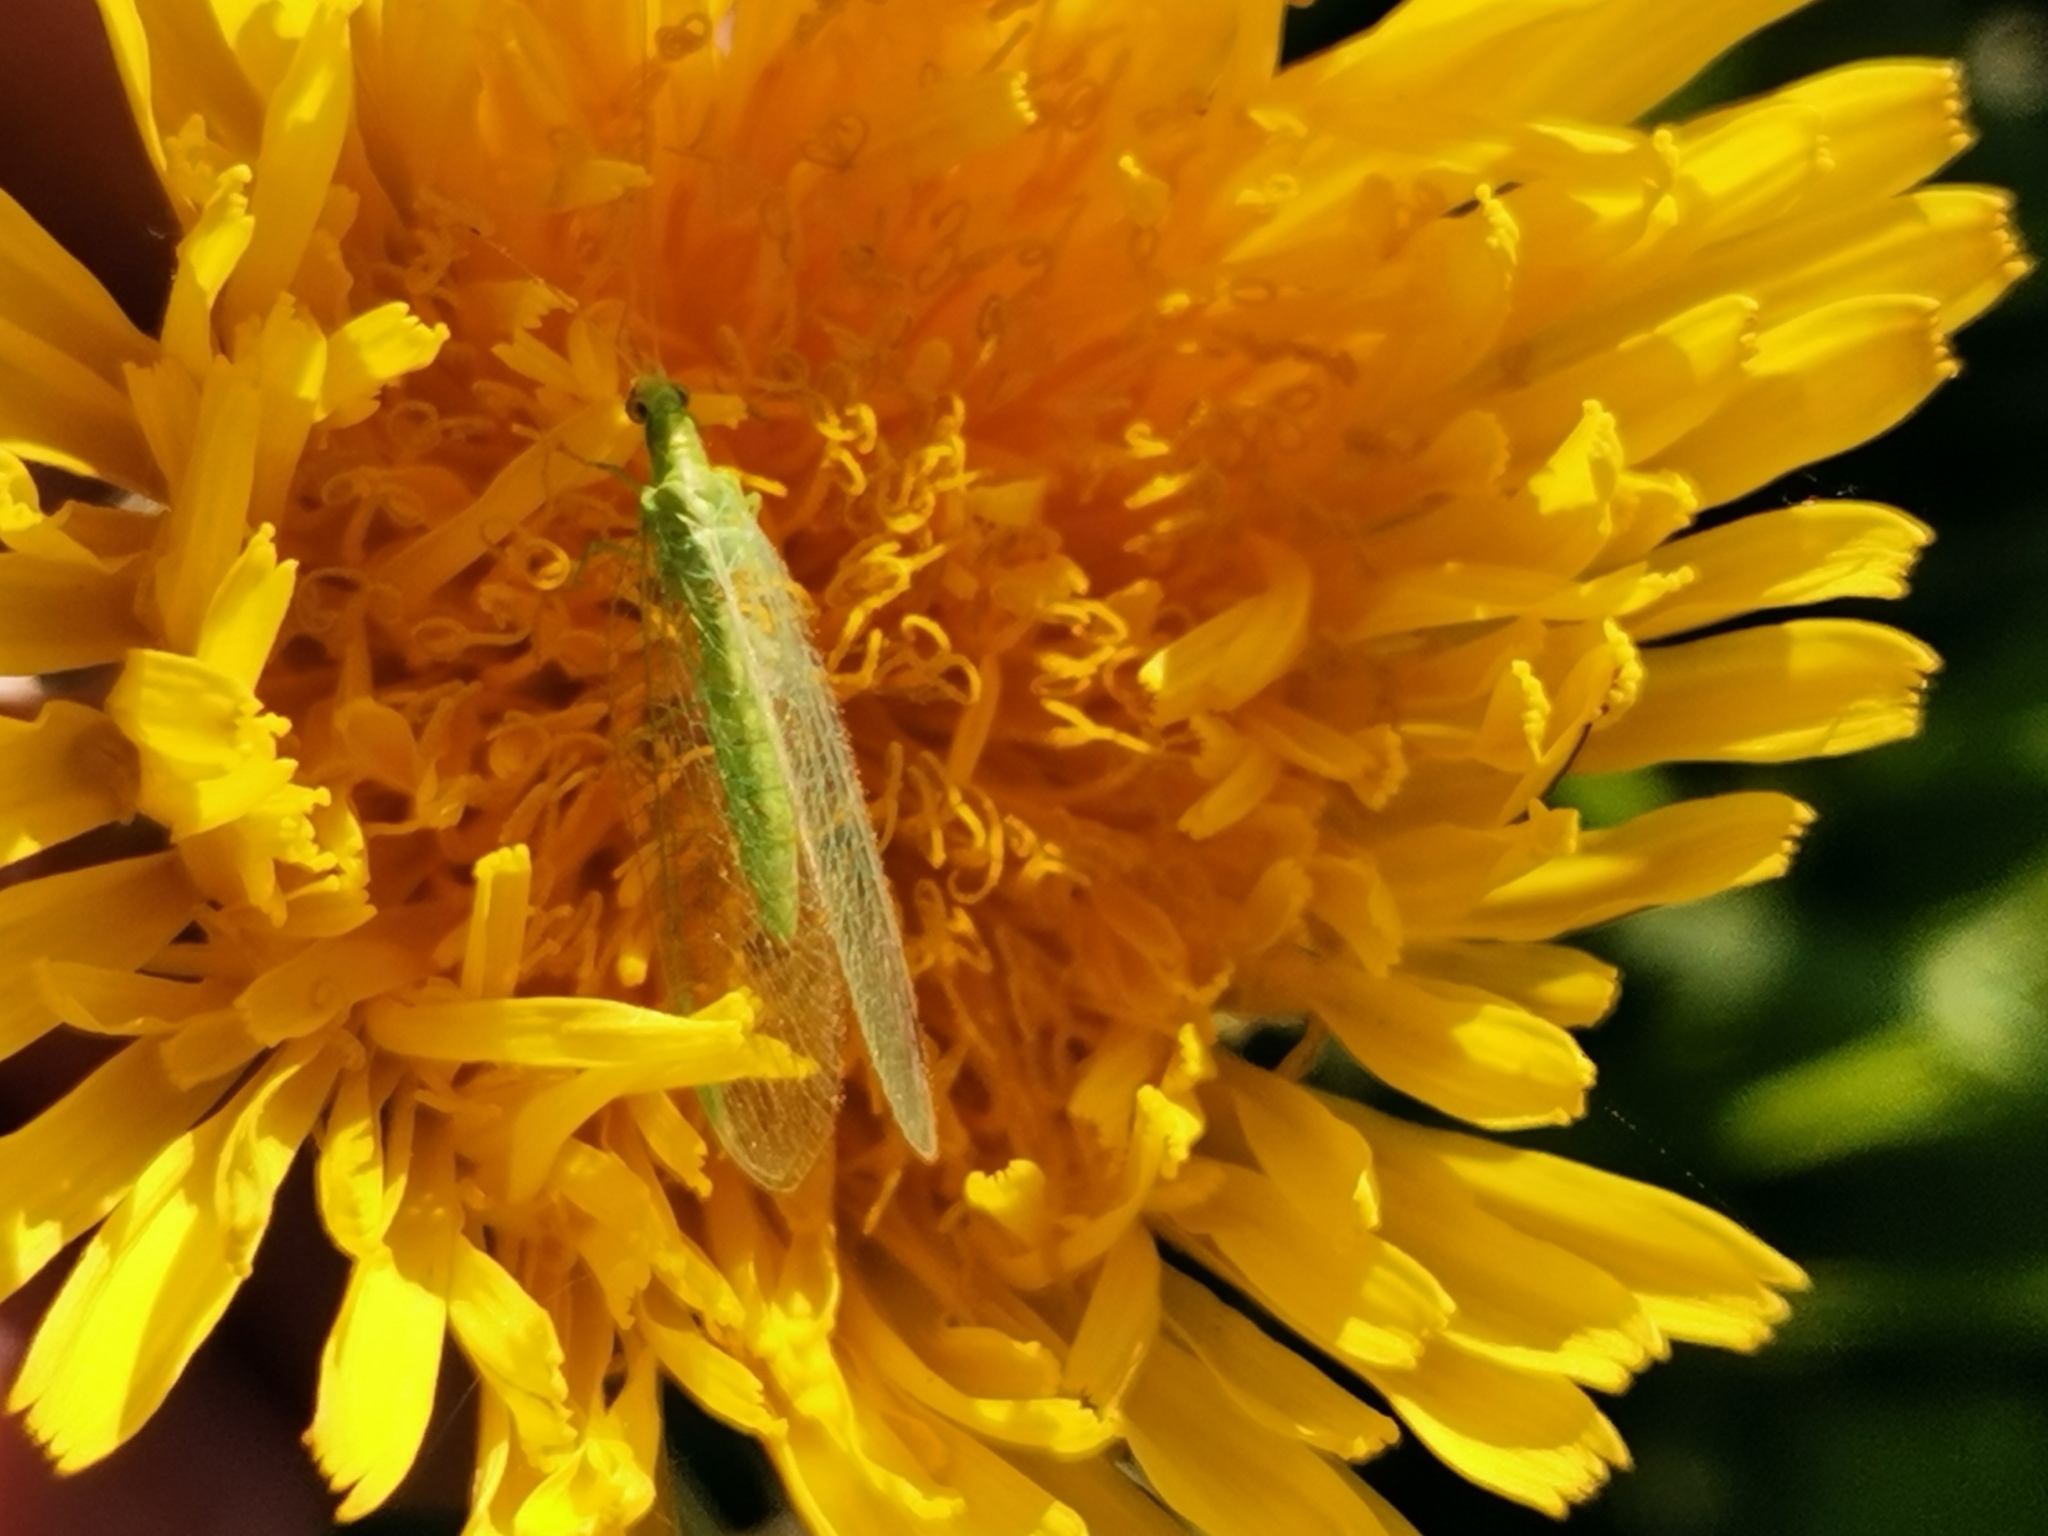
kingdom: Animalia
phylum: Arthropoda
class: Insecta
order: Neuroptera
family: Chrysopidae
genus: Chrysoperla
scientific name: Chrysoperla
